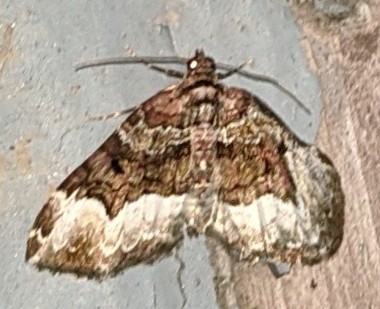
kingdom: Animalia
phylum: Arthropoda
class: Insecta
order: Lepidoptera
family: Geometridae
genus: Euphyia
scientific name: Euphyia intermediata
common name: Sharp-angled carpet
